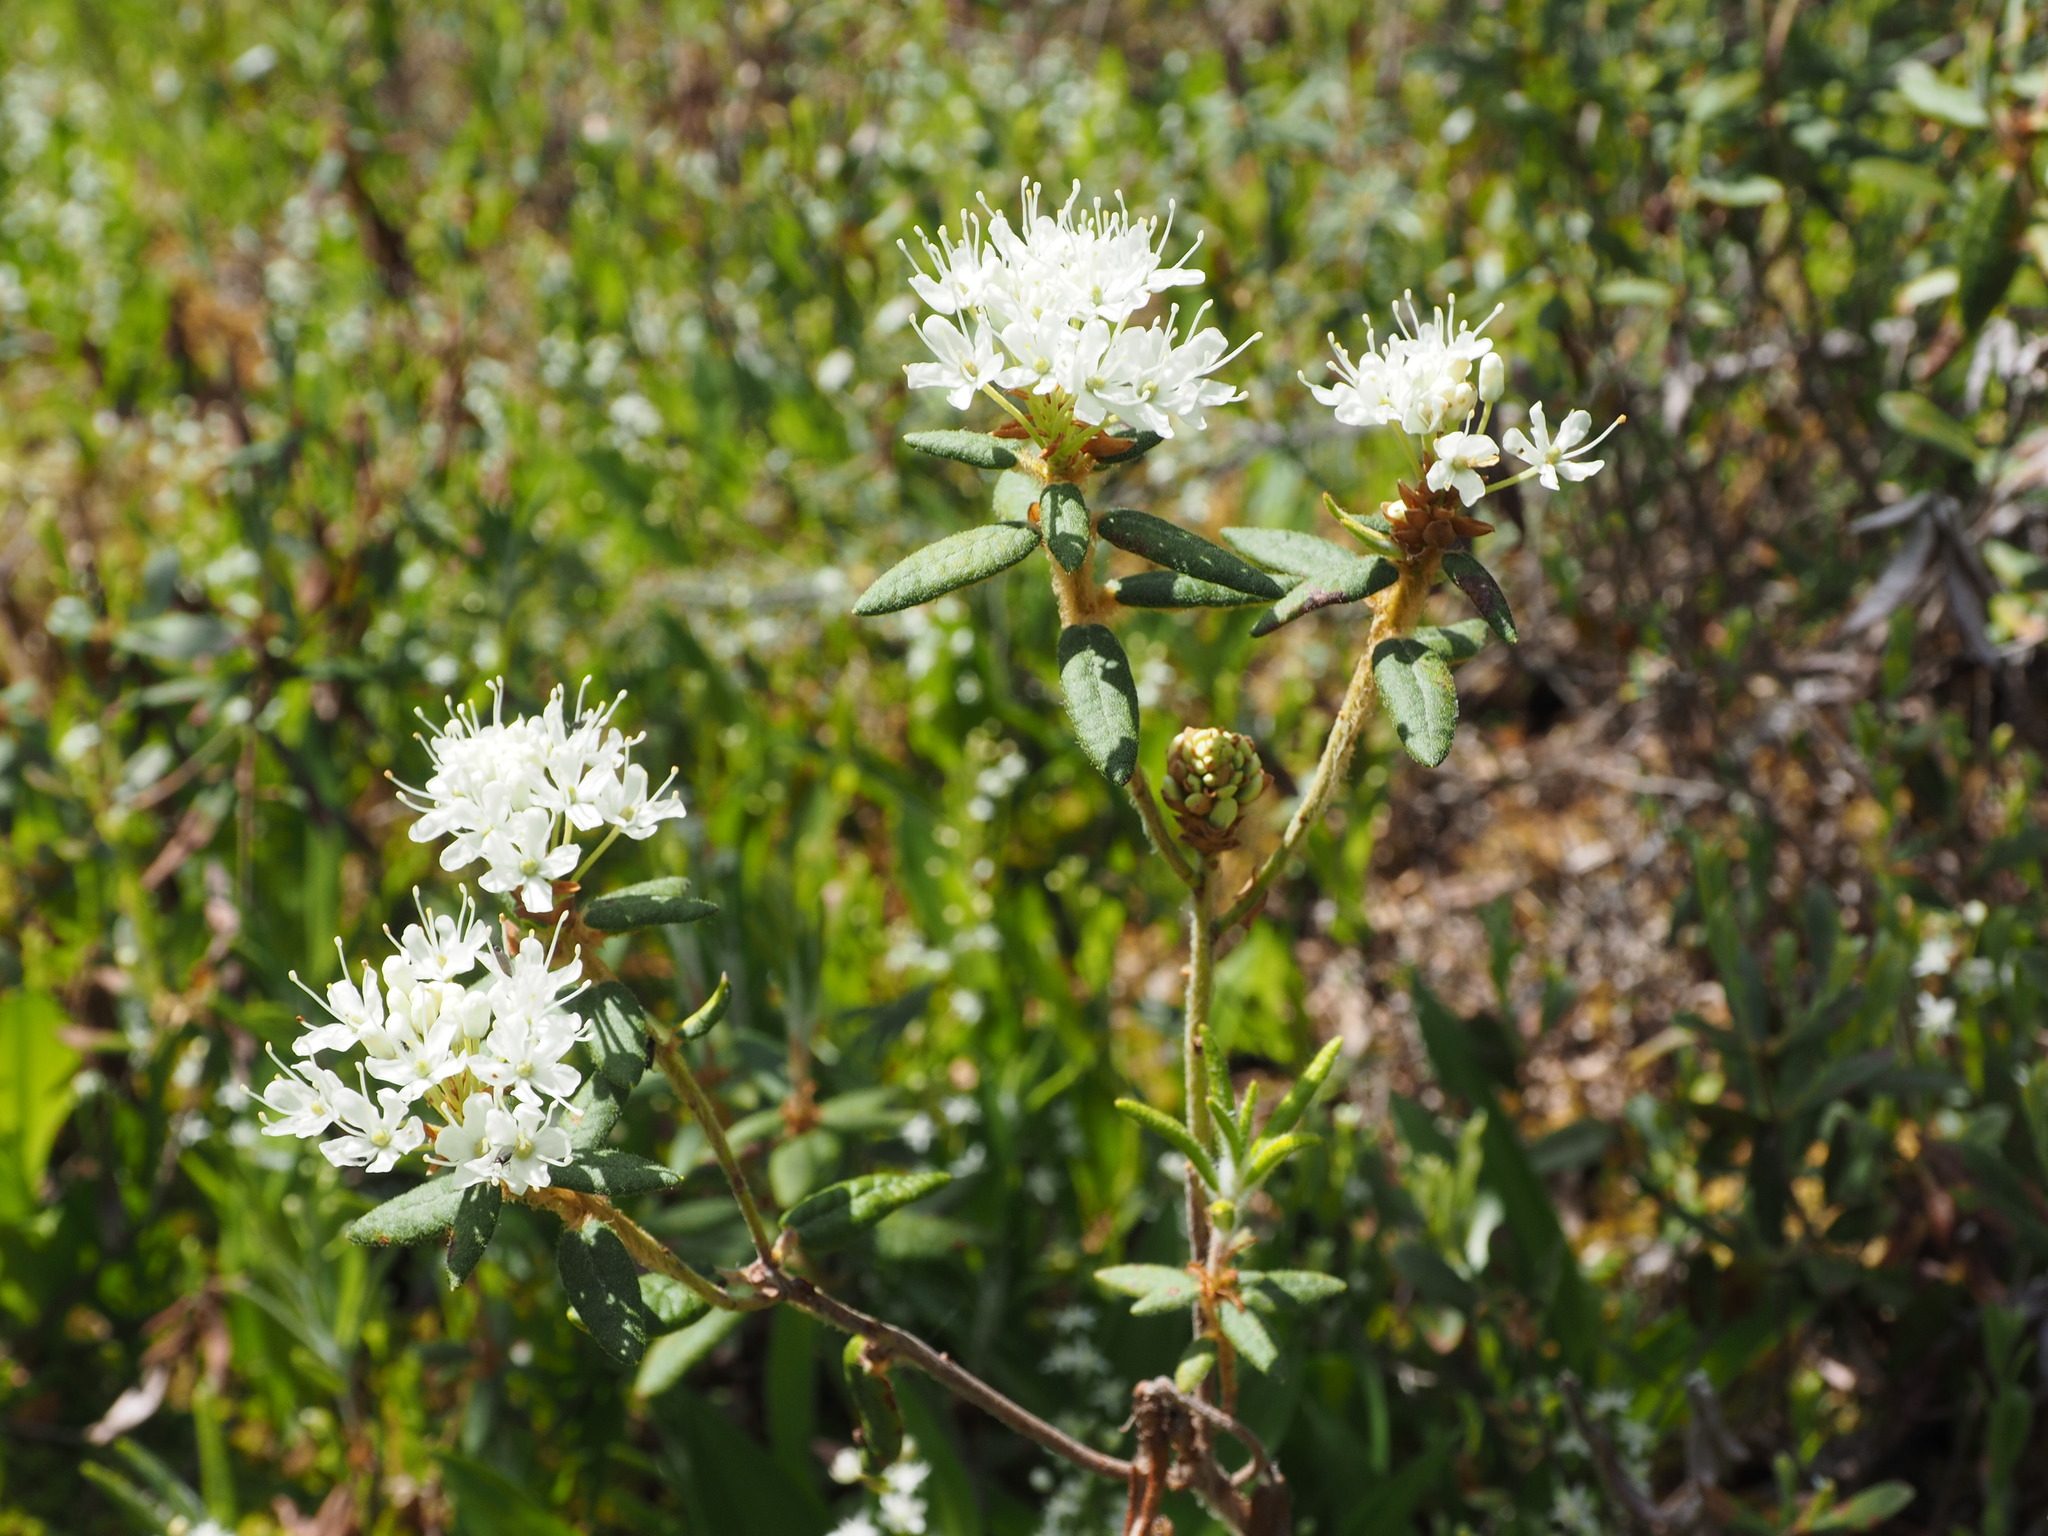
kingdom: Plantae
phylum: Tracheophyta
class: Magnoliopsida
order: Ericales
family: Ericaceae
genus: Rhododendron
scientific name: Rhododendron groenlandicum
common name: Bog labrador tea
